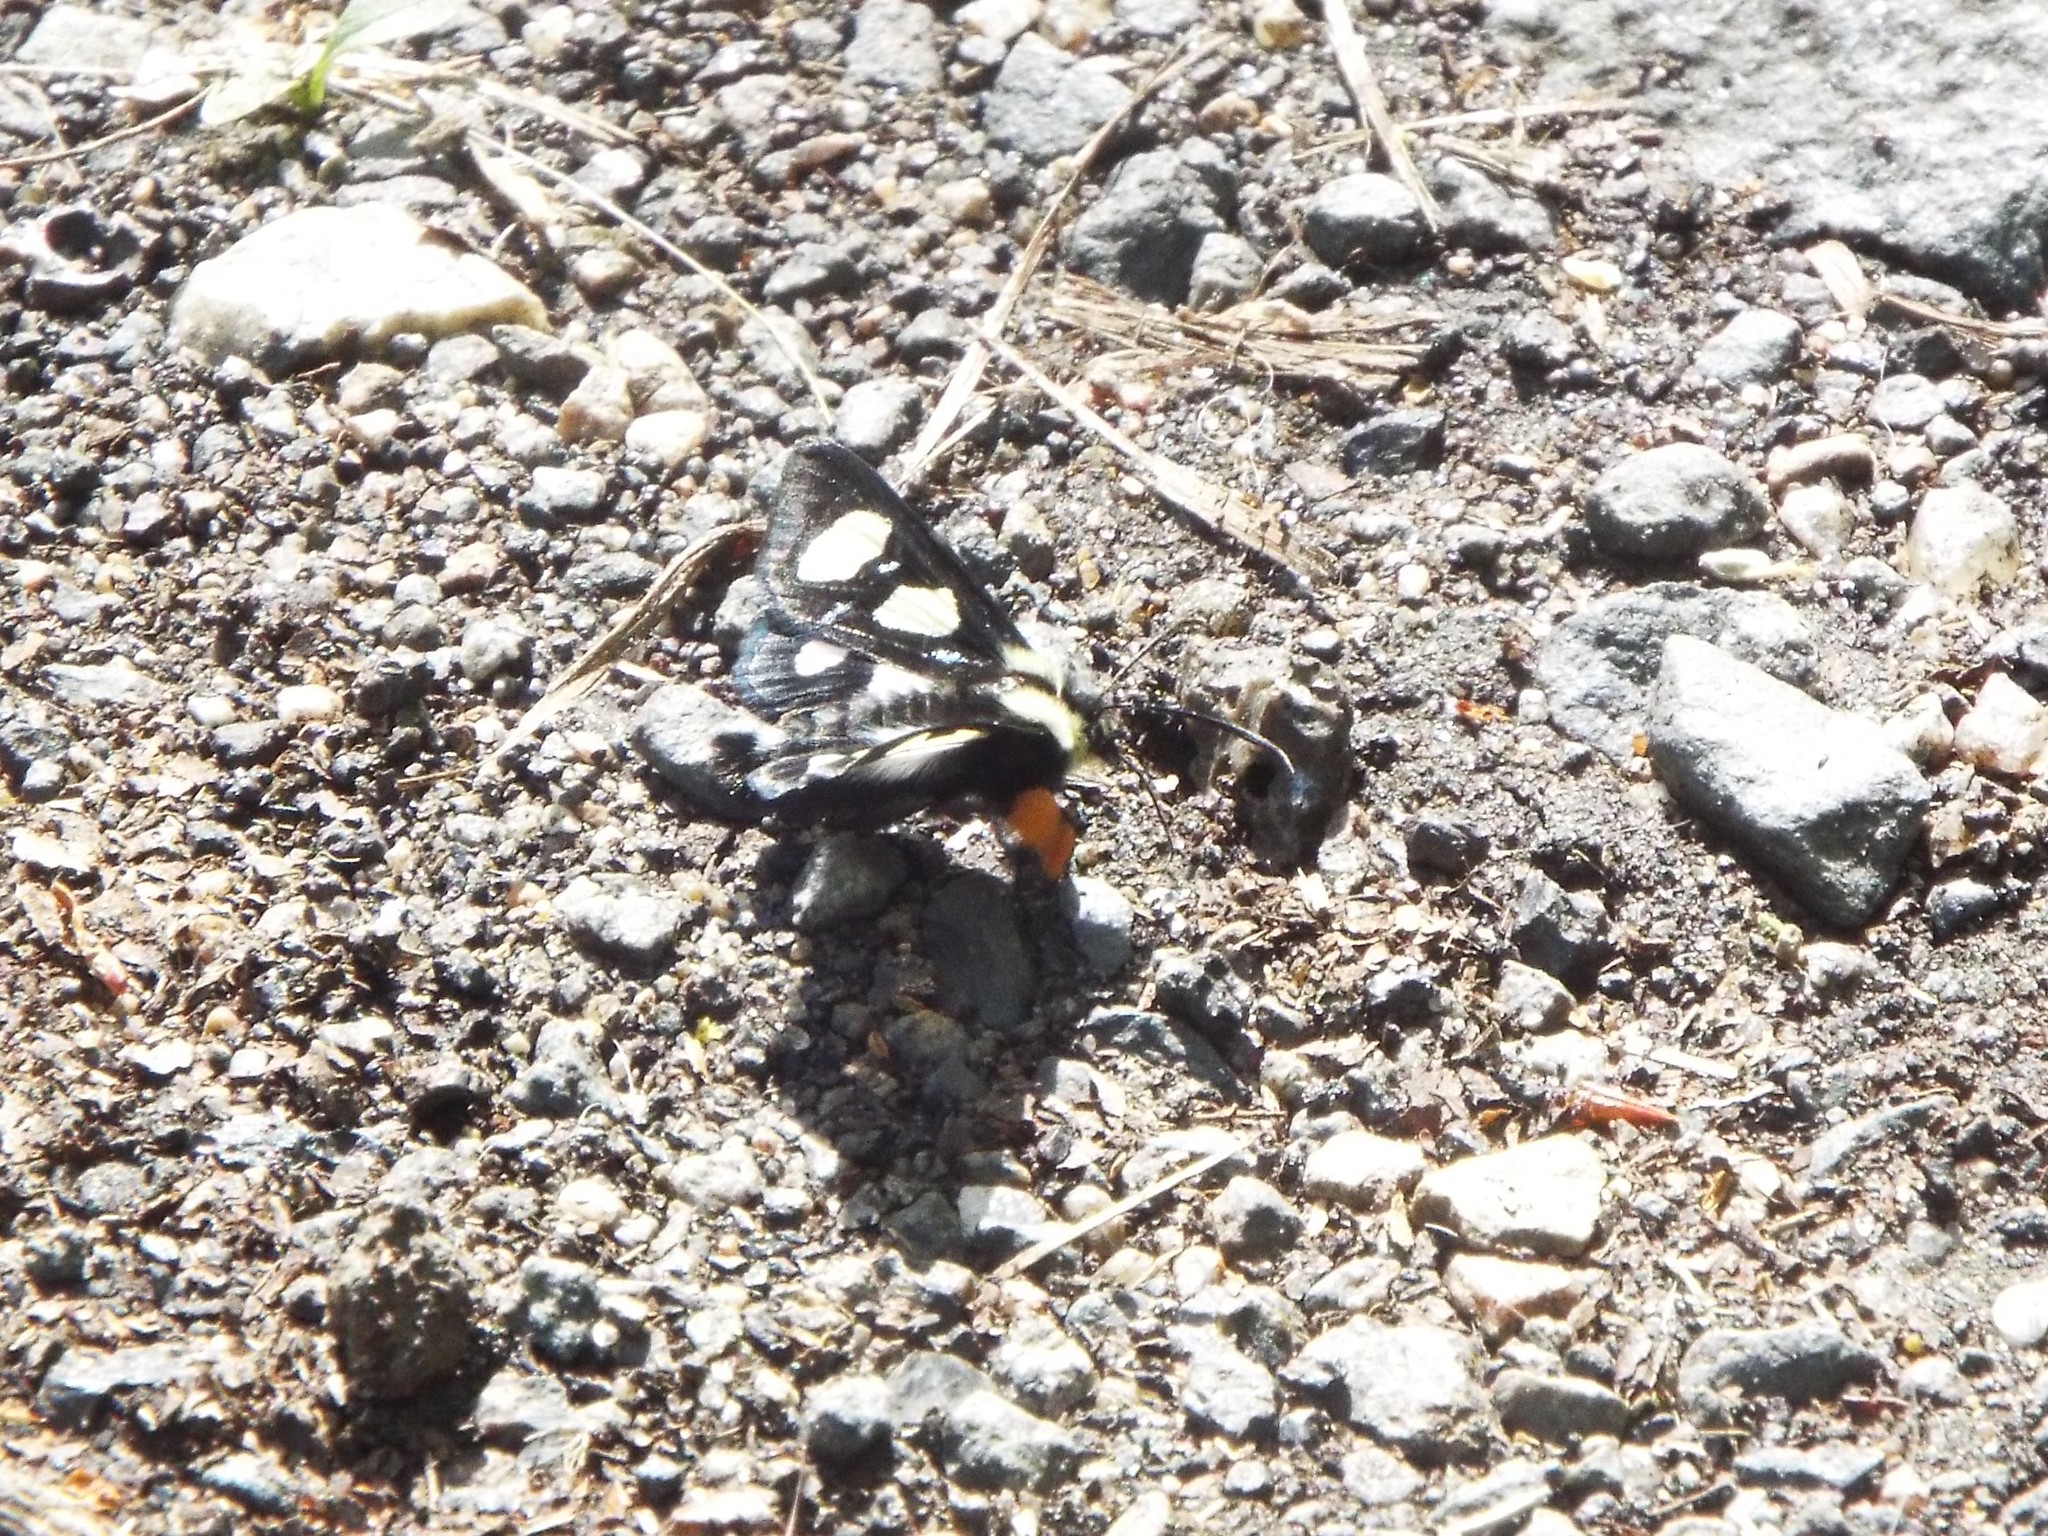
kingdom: Animalia
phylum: Arthropoda
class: Insecta
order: Lepidoptera
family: Noctuidae
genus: Alypia
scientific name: Alypia octomaculata
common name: Eight-spotted forester
